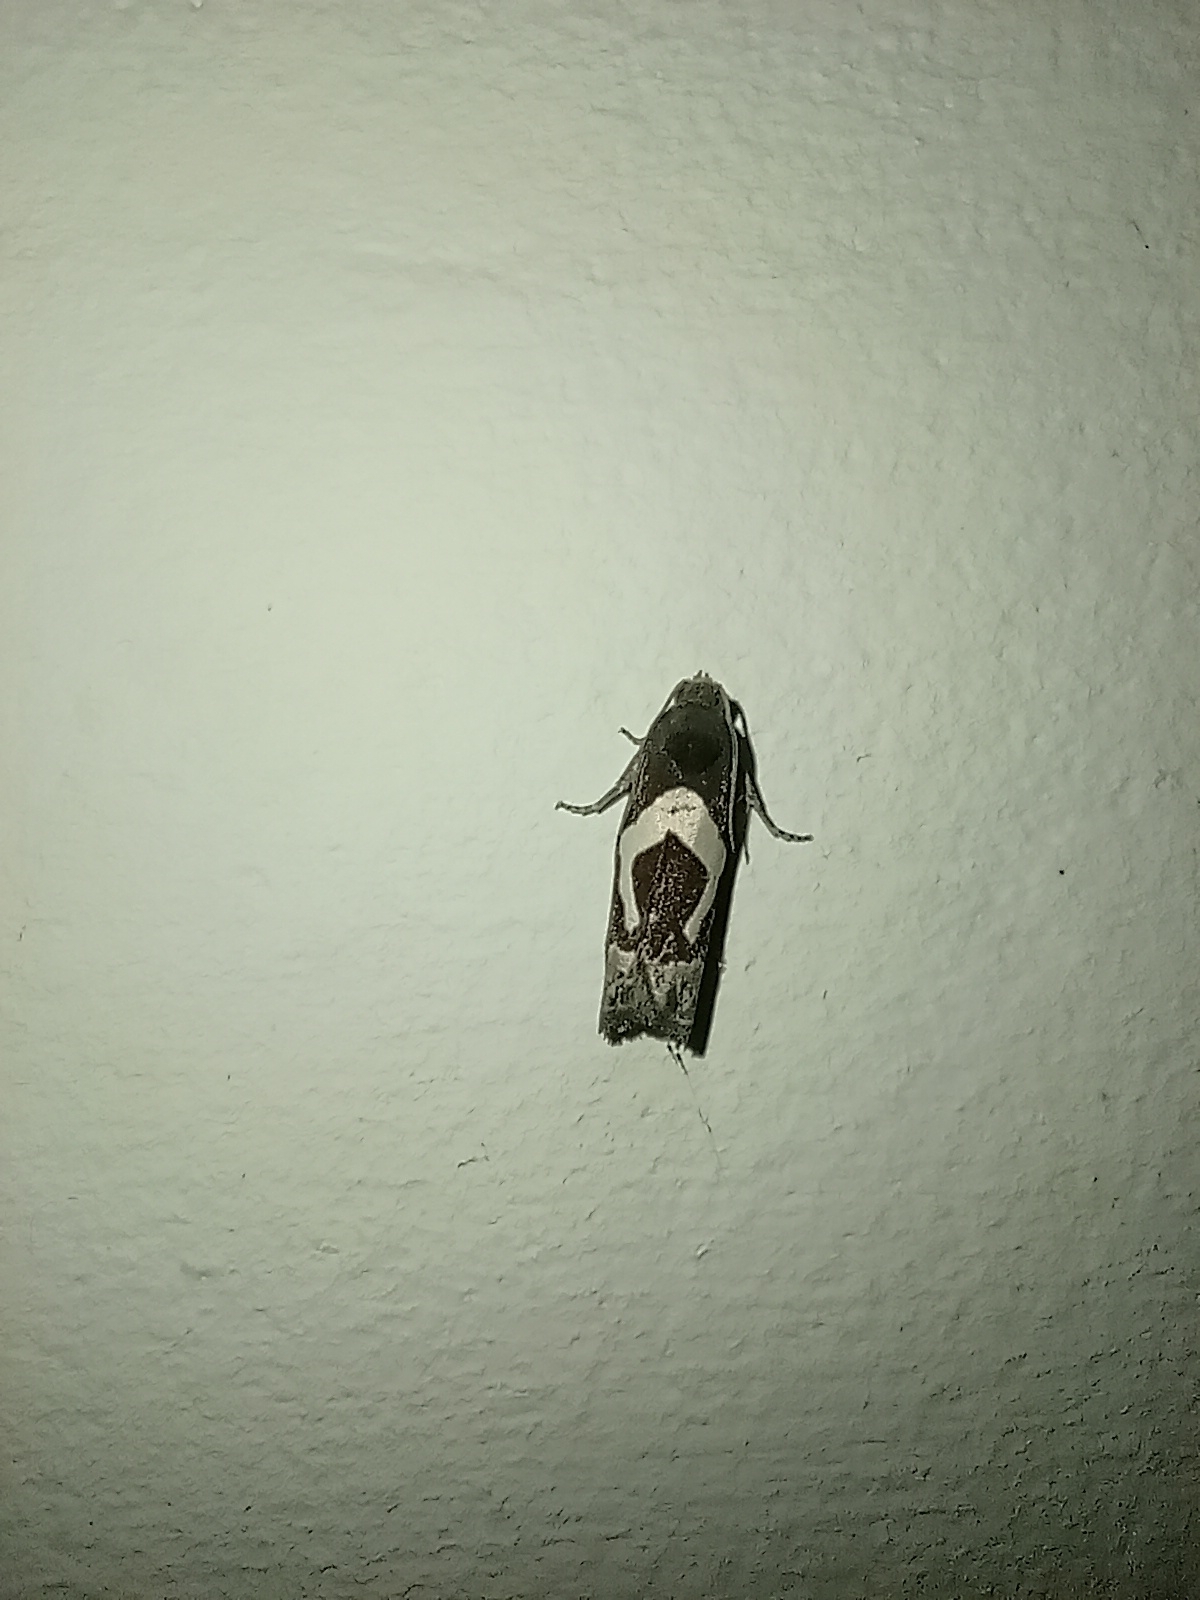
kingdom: Animalia
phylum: Arthropoda
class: Insecta
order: Lepidoptera
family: Tortricidae
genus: Epiblema
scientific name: Epiblema foenella
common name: White-foot bell
